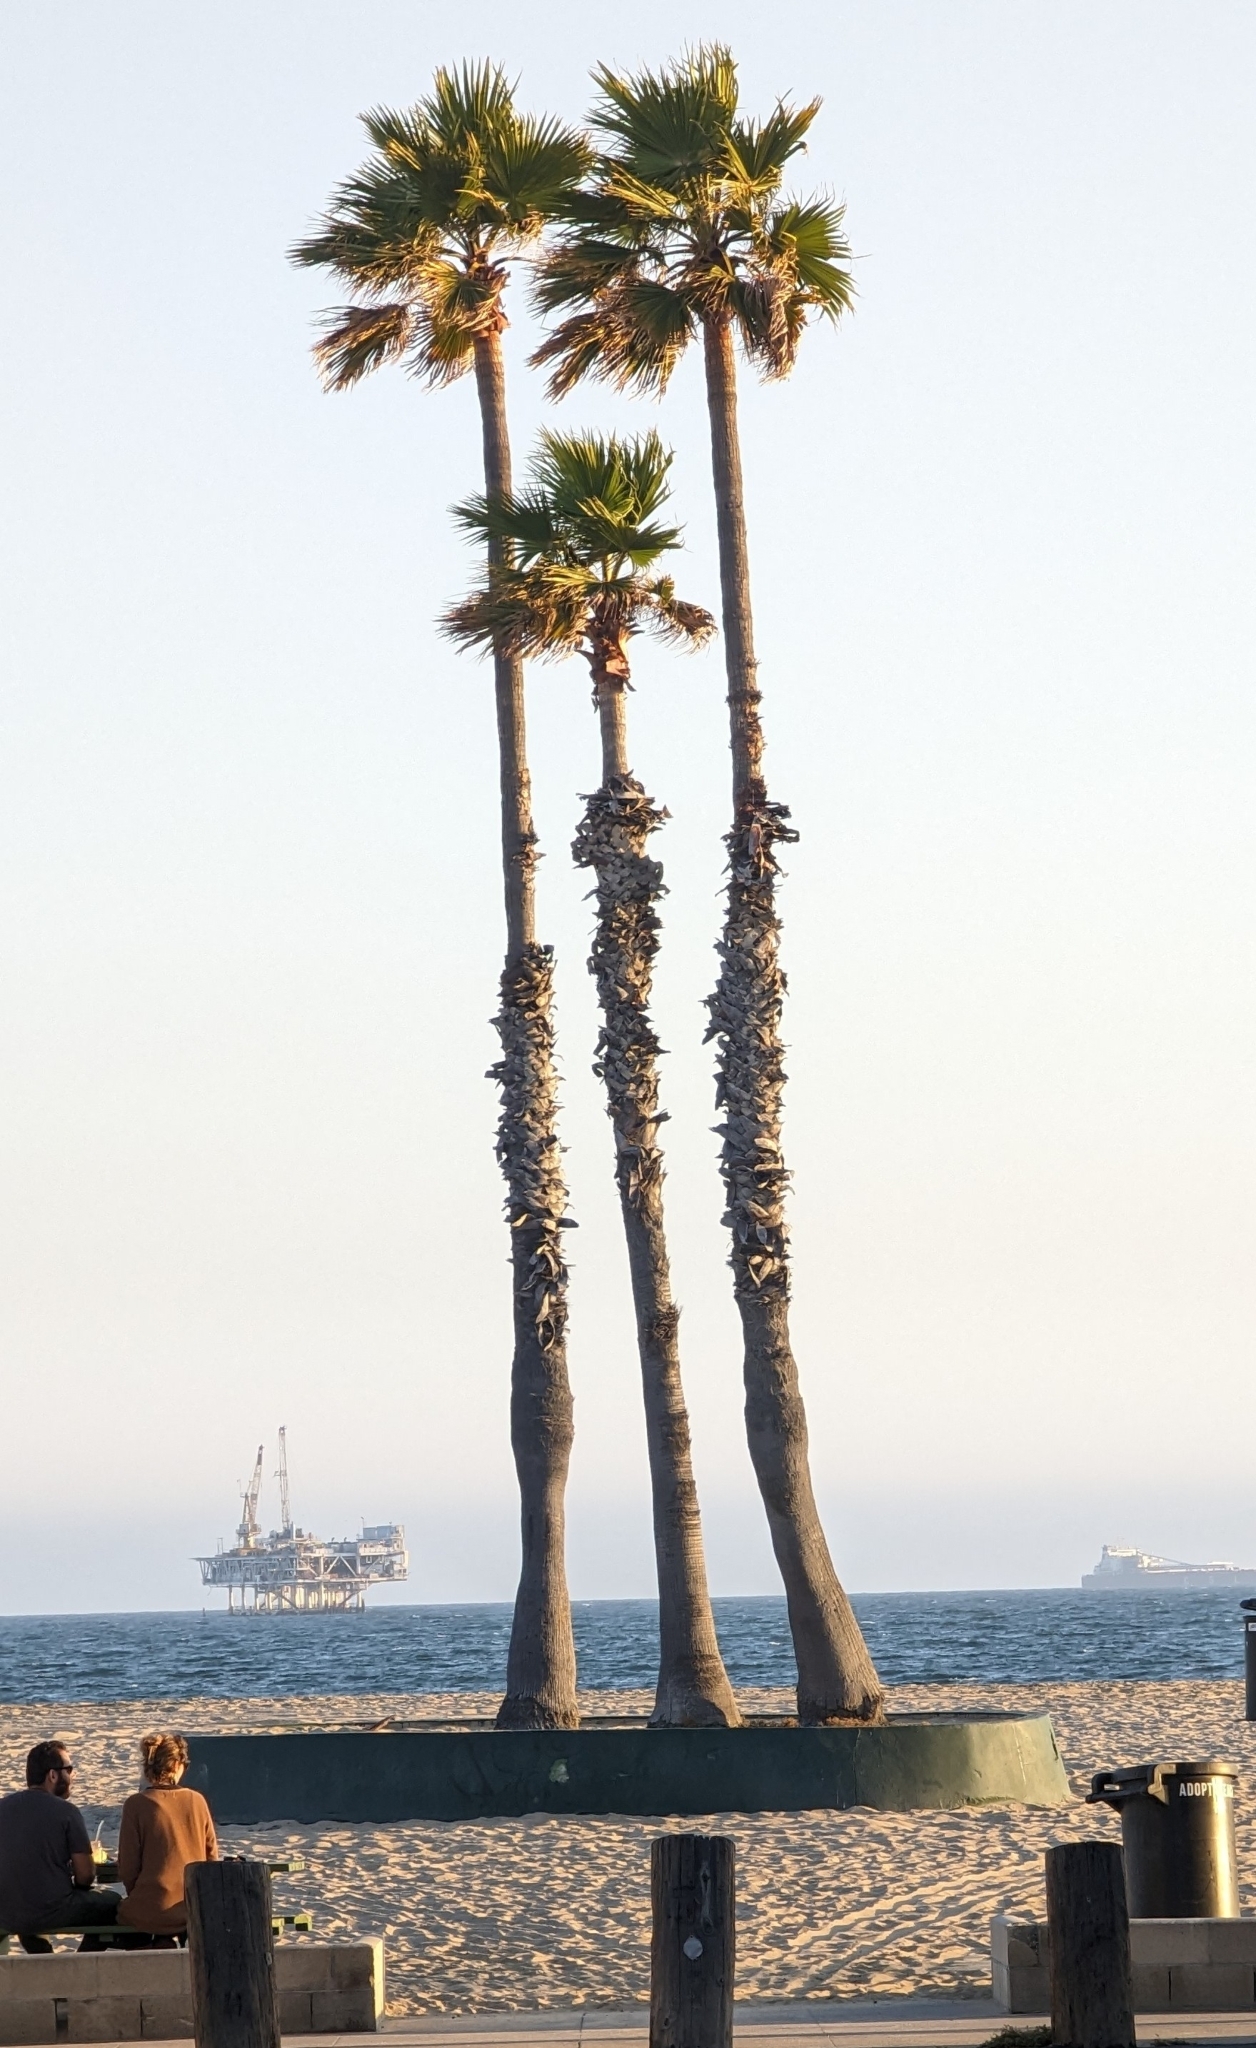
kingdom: Plantae
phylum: Tracheophyta
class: Liliopsida
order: Arecales
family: Arecaceae
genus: Washingtonia
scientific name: Washingtonia robusta
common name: Mexican fan palm
